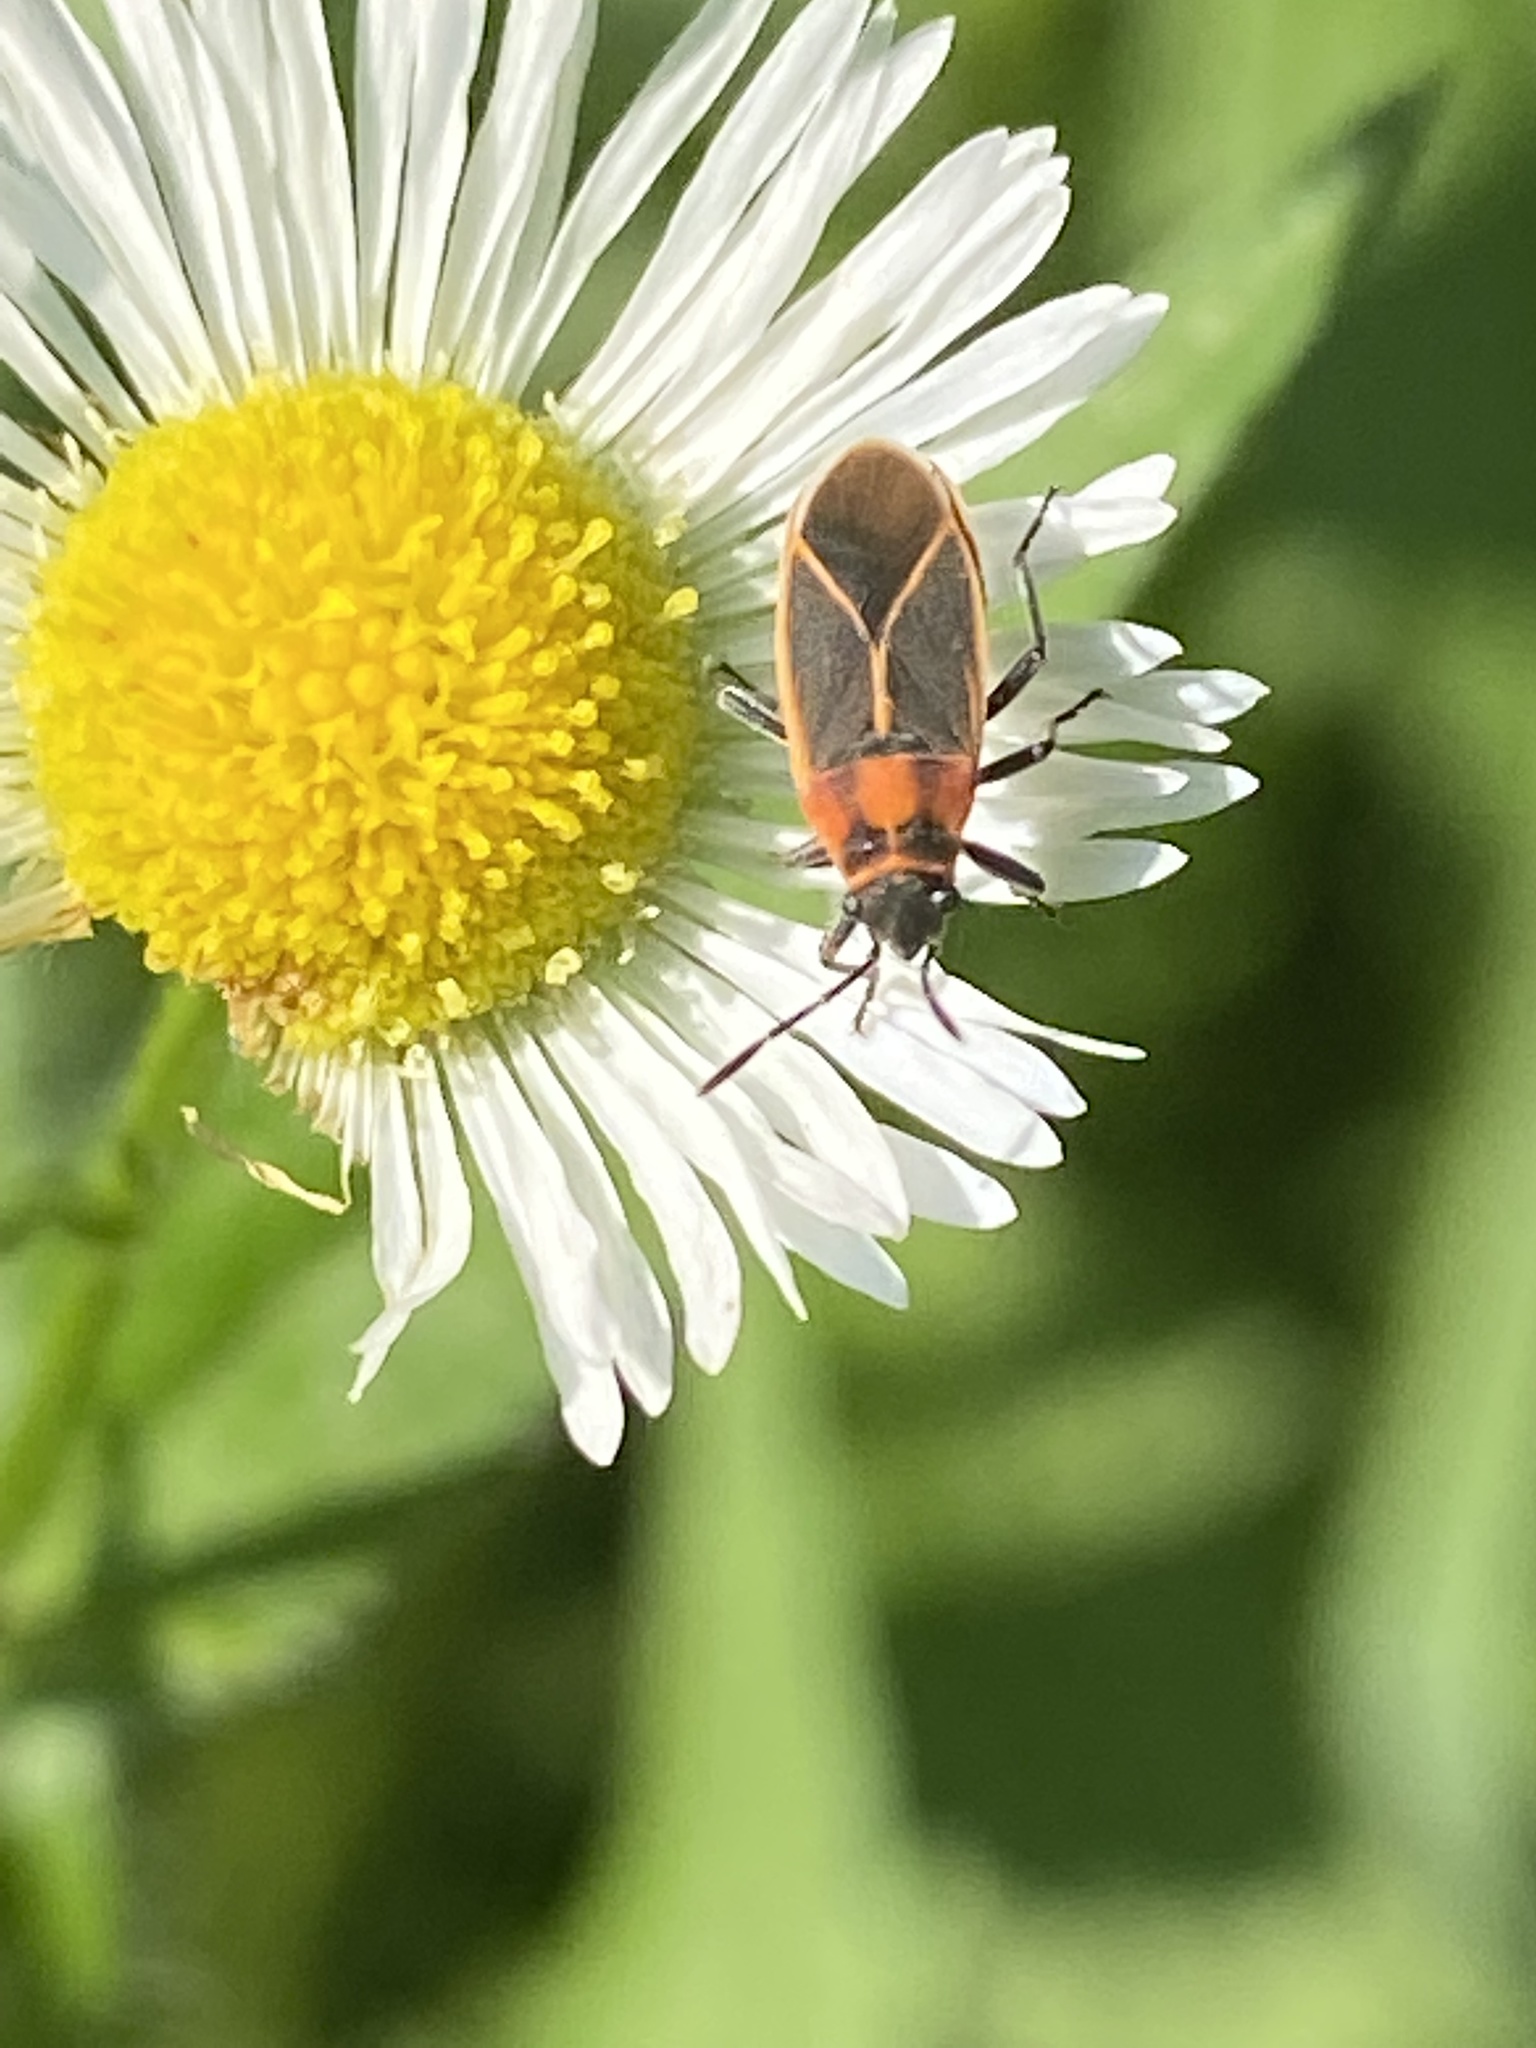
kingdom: Animalia
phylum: Arthropoda
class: Insecta
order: Hemiptera
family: Lygaeidae
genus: Ochrimnus
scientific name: Ochrimnus lineoloides
